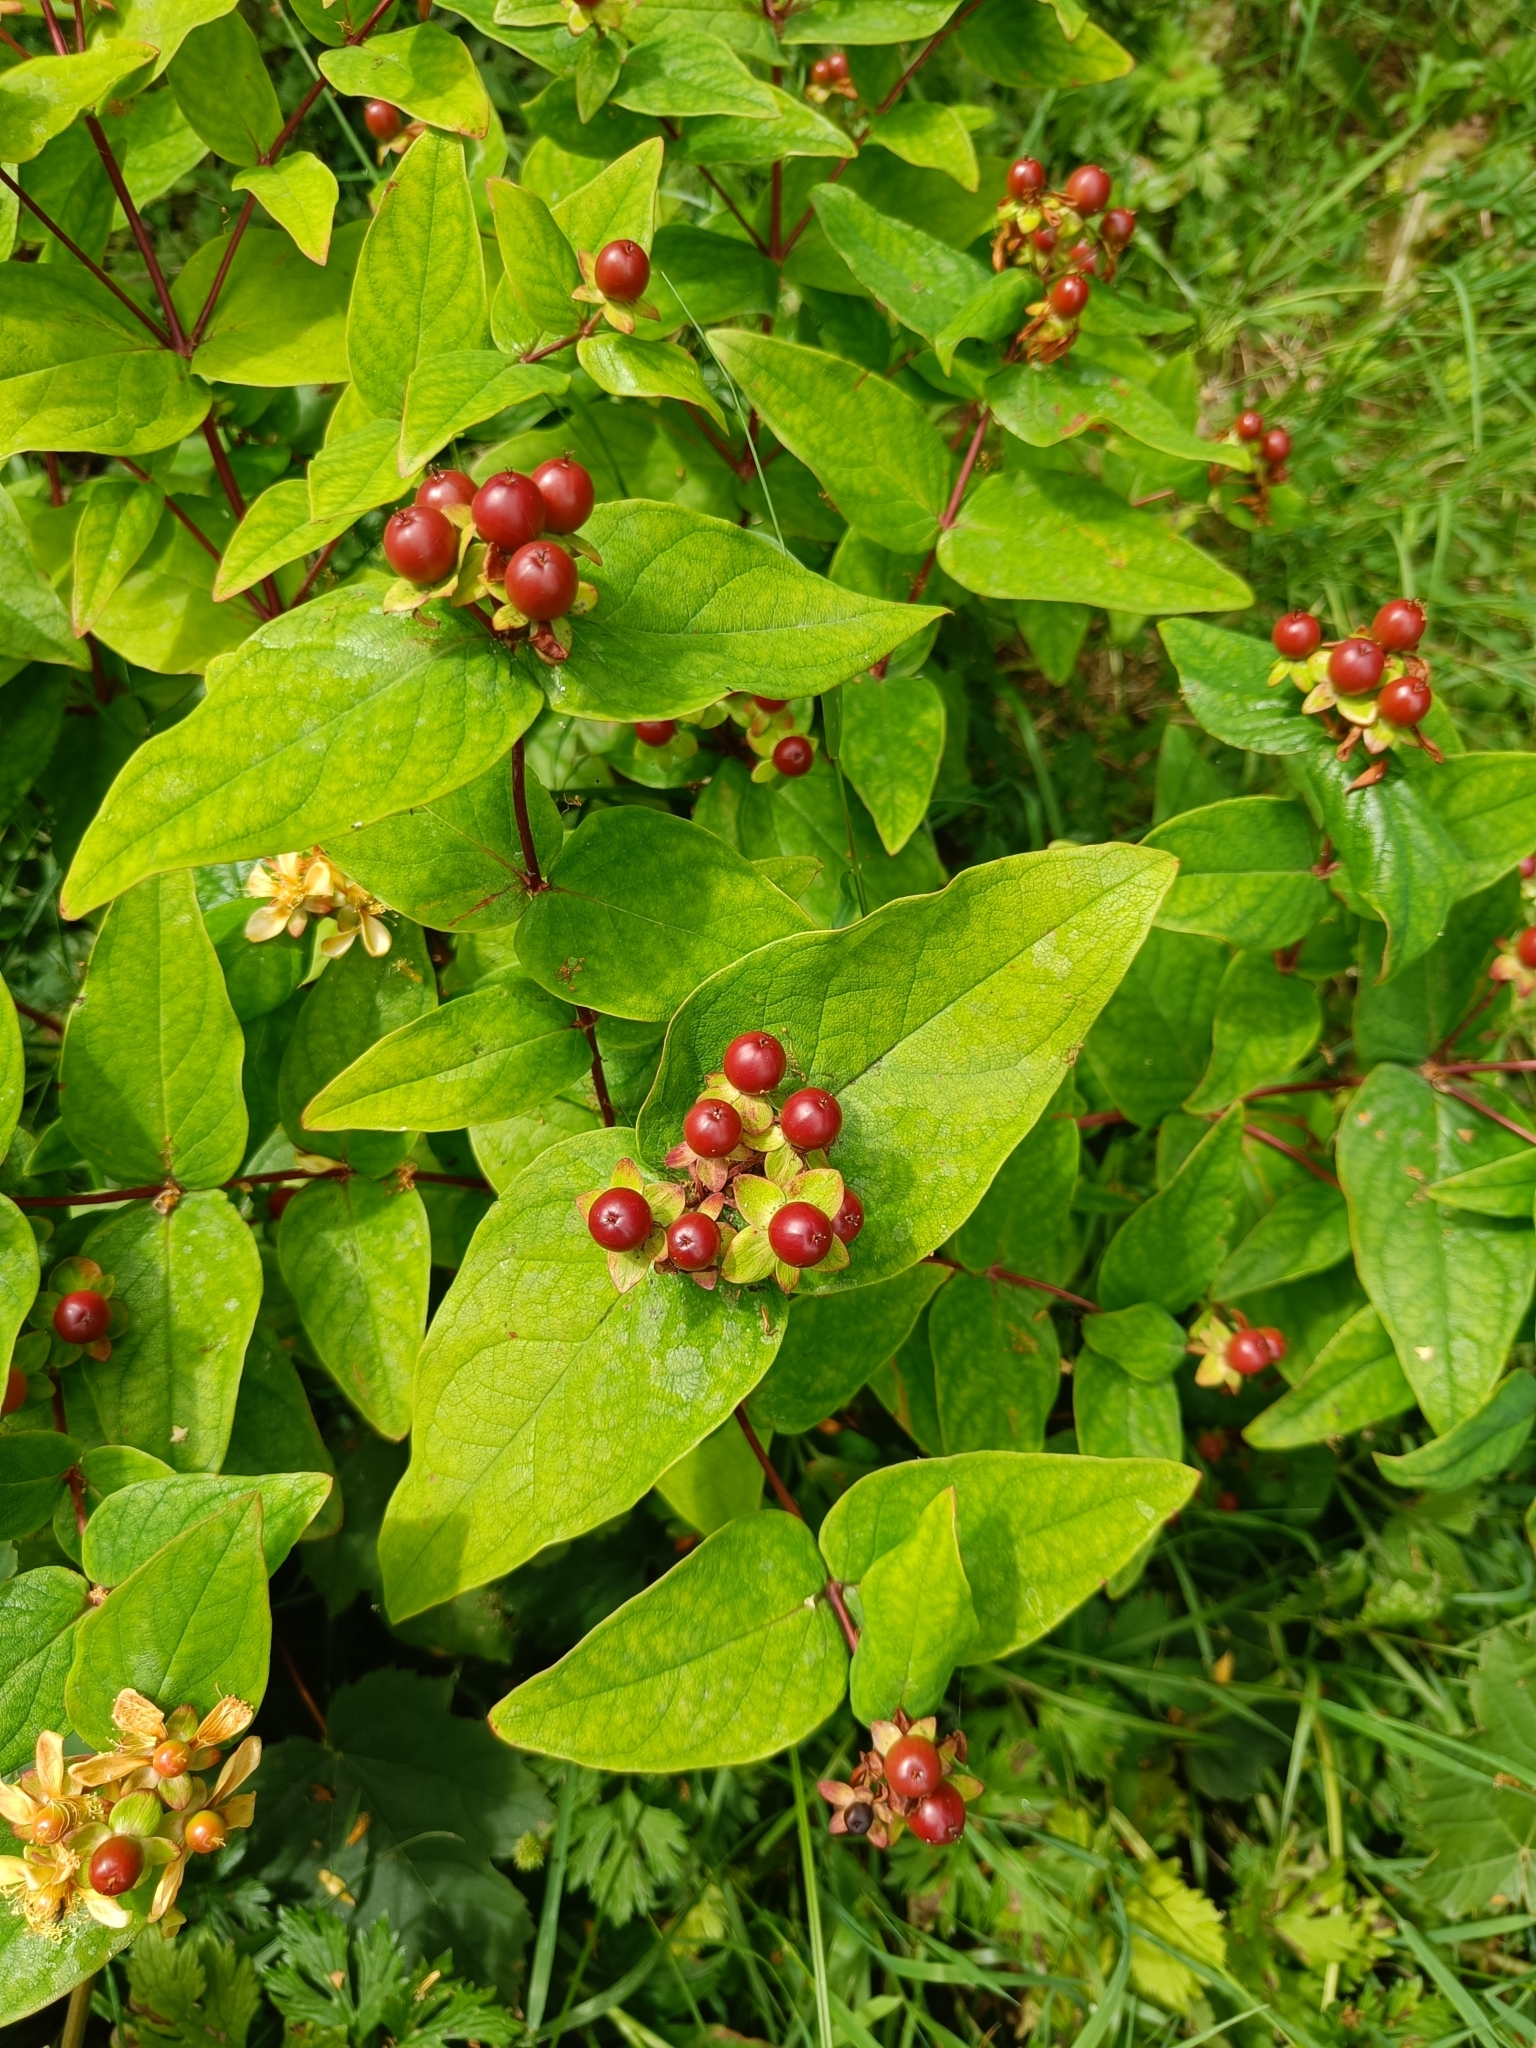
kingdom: Plantae
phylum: Tracheophyta
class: Magnoliopsida
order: Malpighiales
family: Hypericaceae
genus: Hypericum
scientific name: Hypericum androsaemum
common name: Sweet-amber
